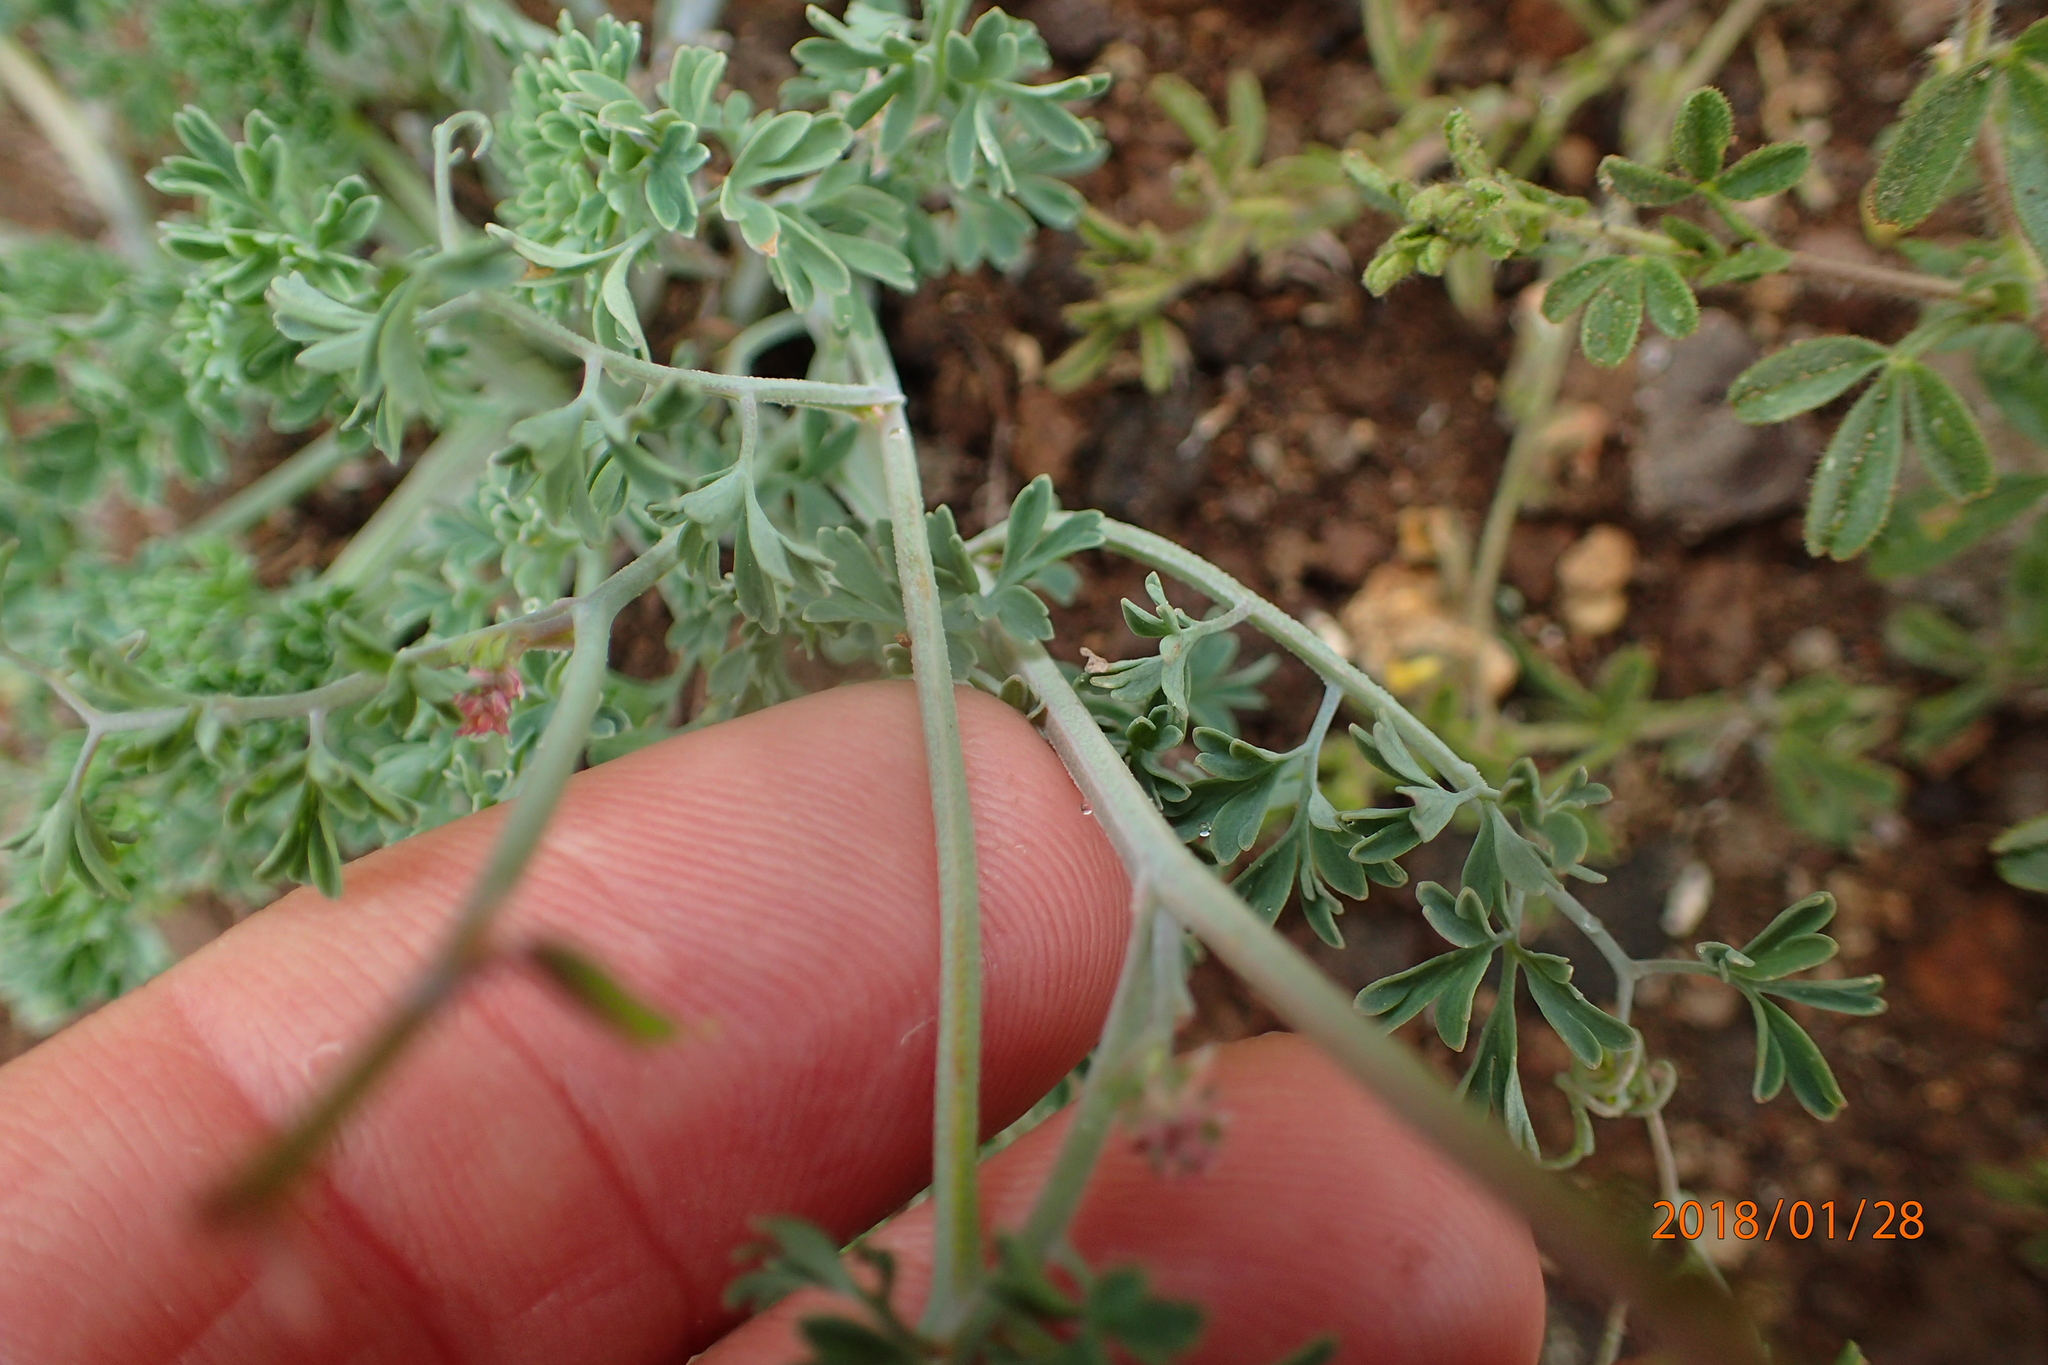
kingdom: Plantae
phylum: Tracheophyta
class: Magnoliopsida
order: Ranunculales
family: Papaveraceae
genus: Cysticapnos
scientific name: Cysticapnos pruinosa
